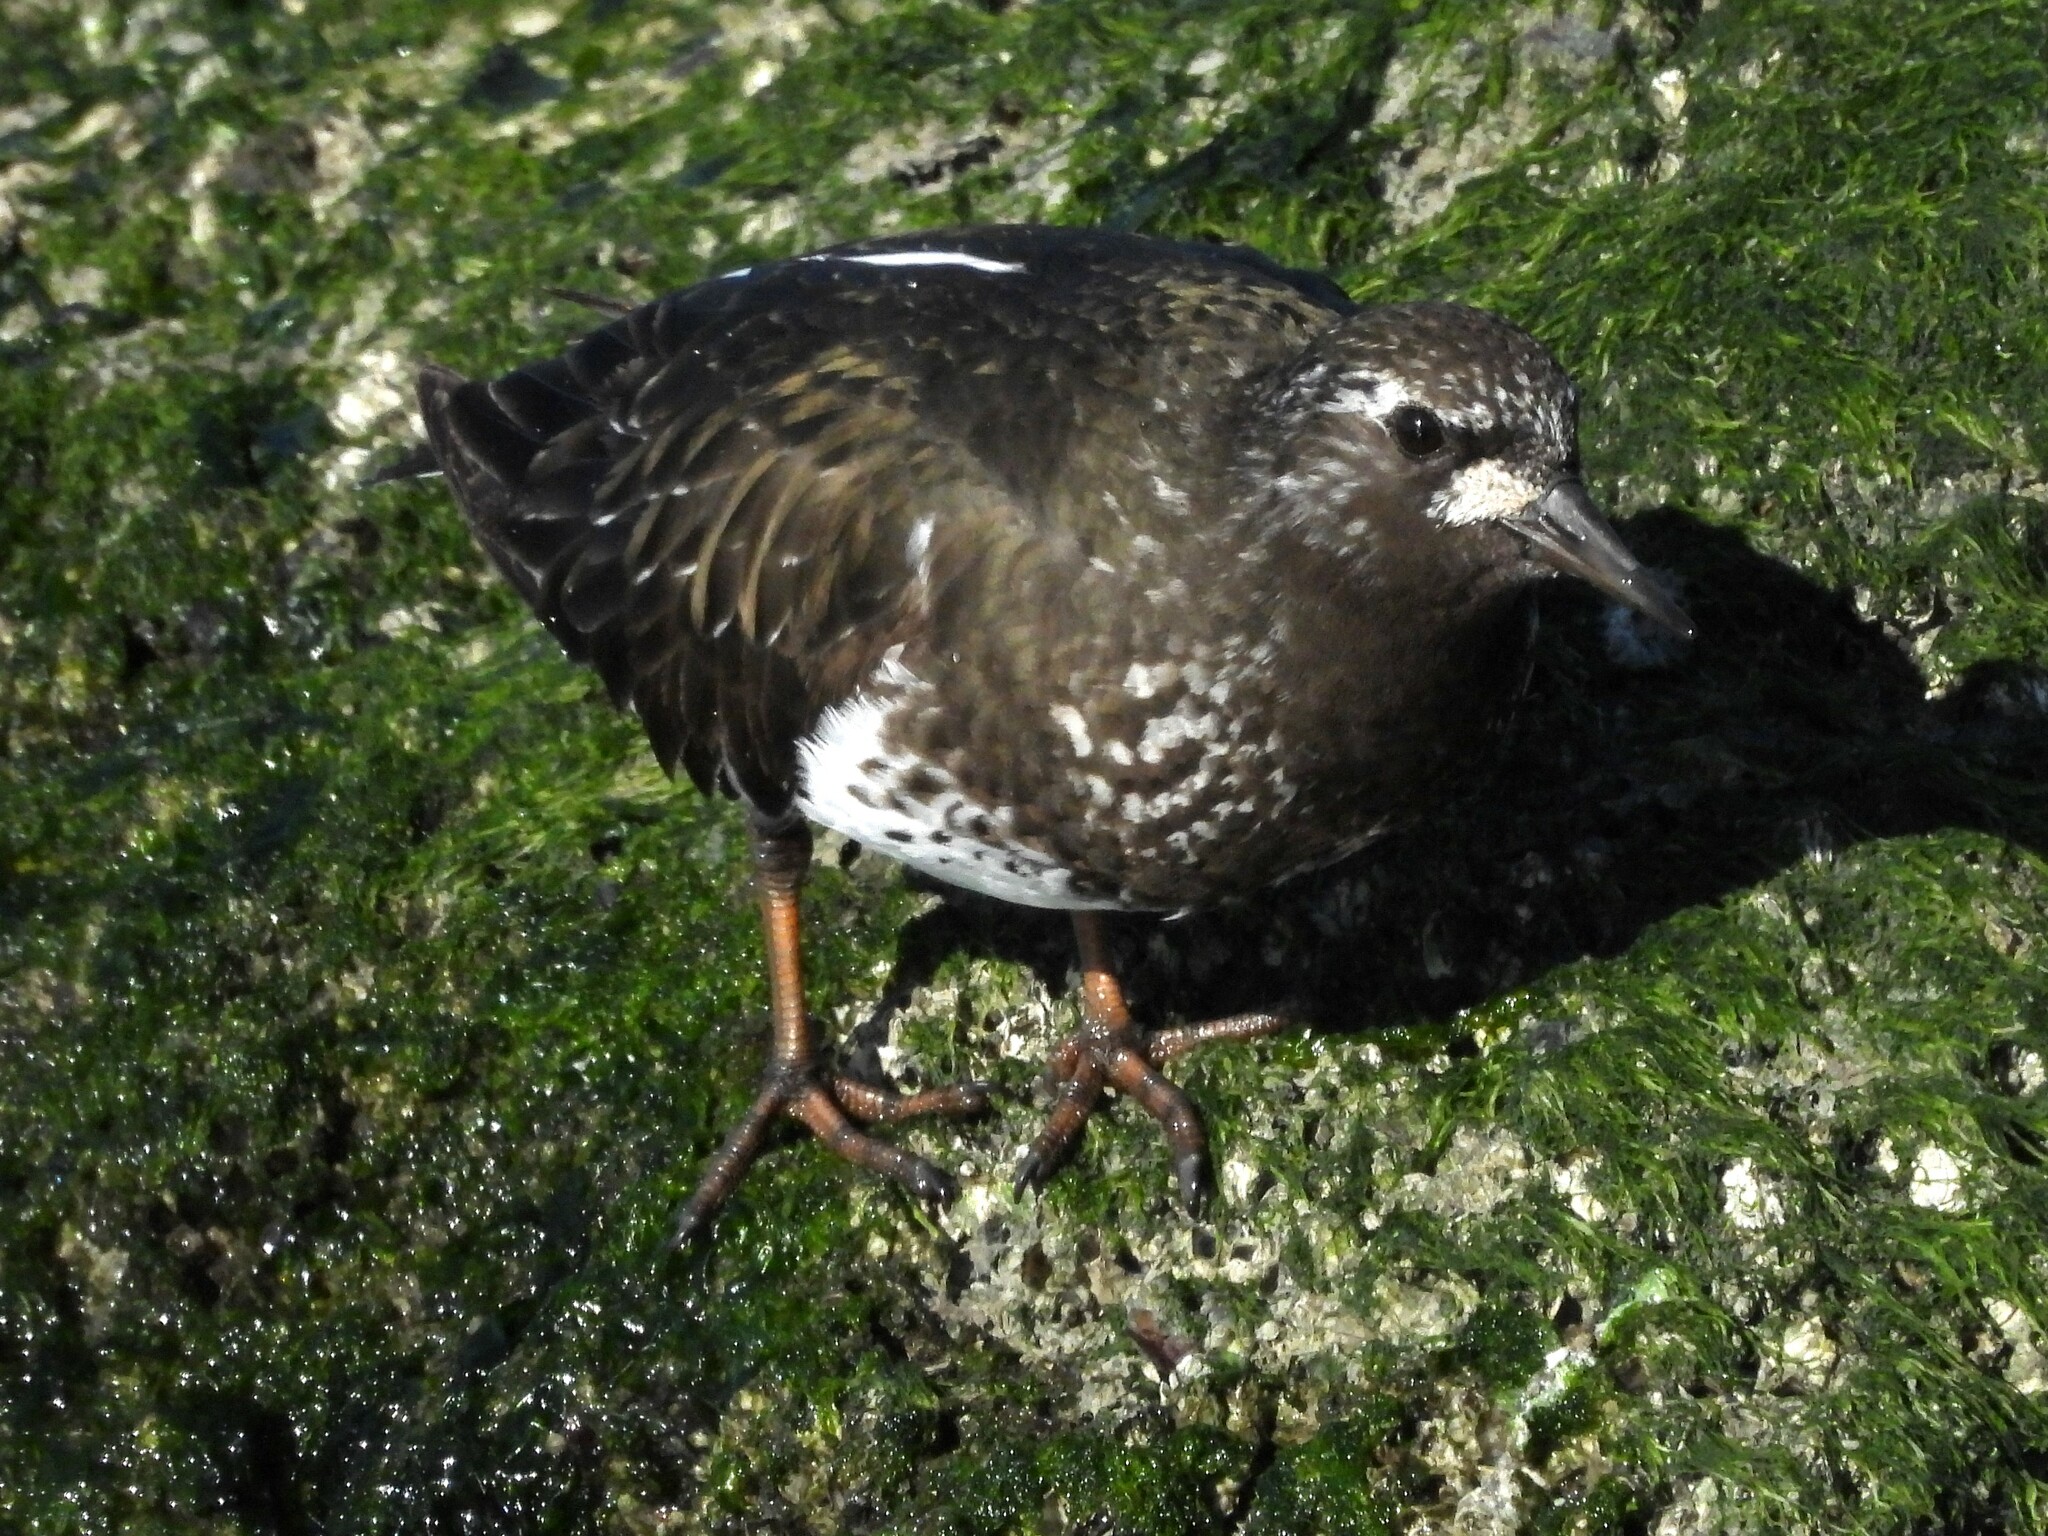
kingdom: Animalia
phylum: Chordata
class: Aves
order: Charadriiformes
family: Scolopacidae
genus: Arenaria
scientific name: Arenaria melanocephala
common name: Black turnstone
